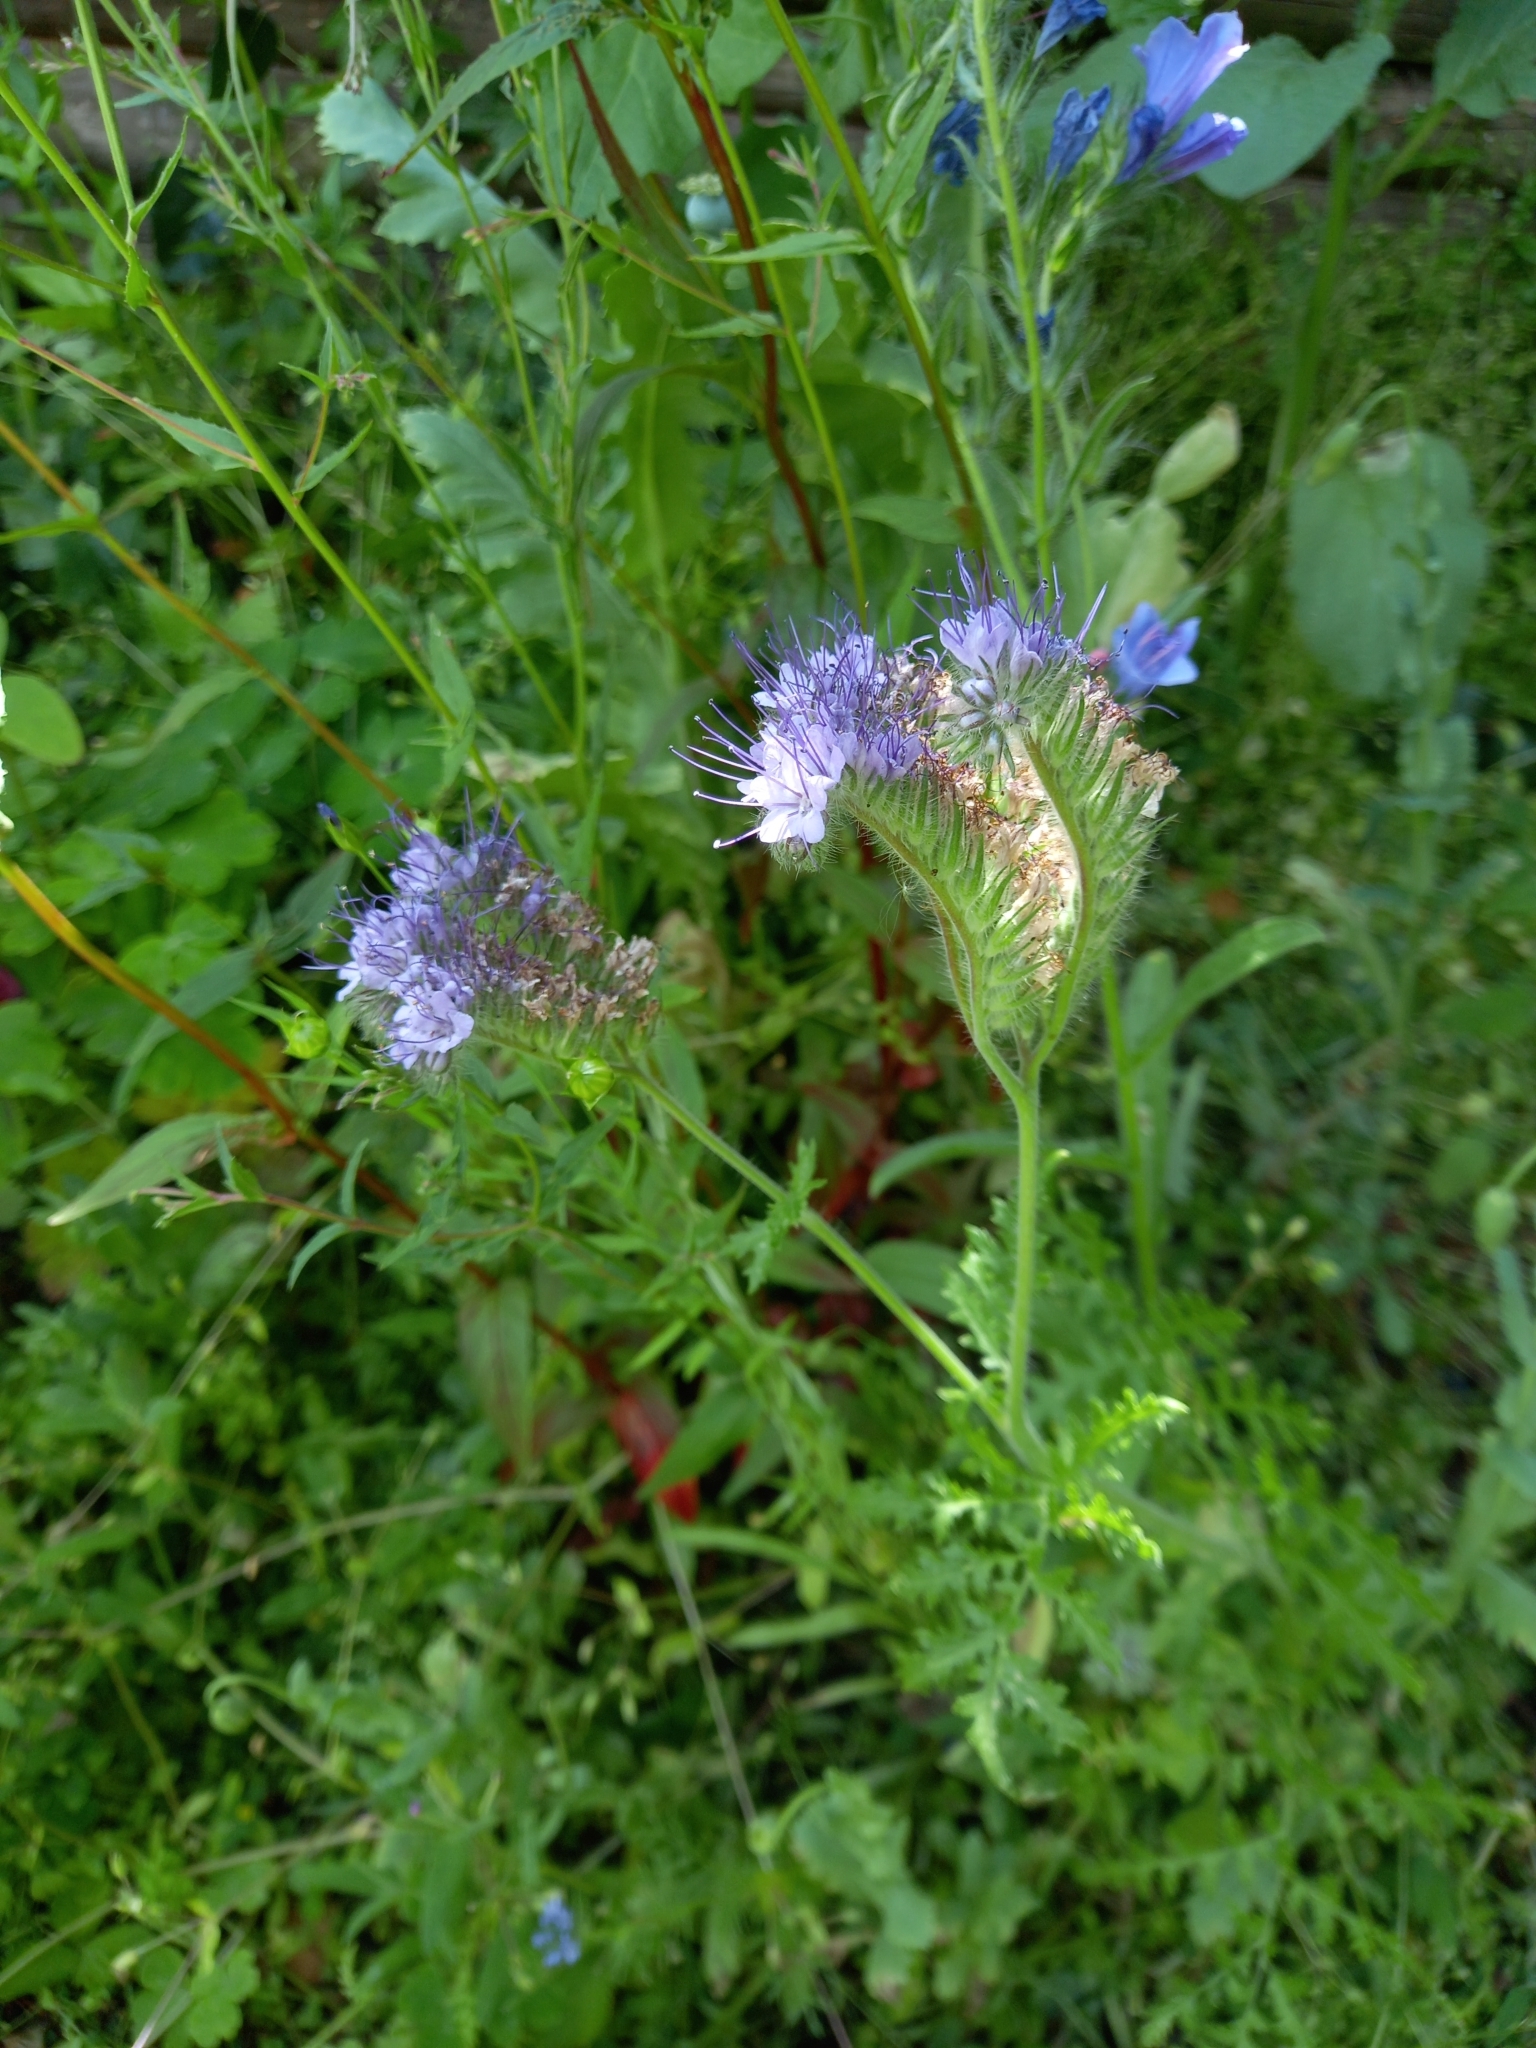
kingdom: Plantae
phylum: Tracheophyta
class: Magnoliopsida
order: Boraginales
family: Hydrophyllaceae
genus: Phacelia
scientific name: Phacelia tanacetifolia
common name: Phacelia
